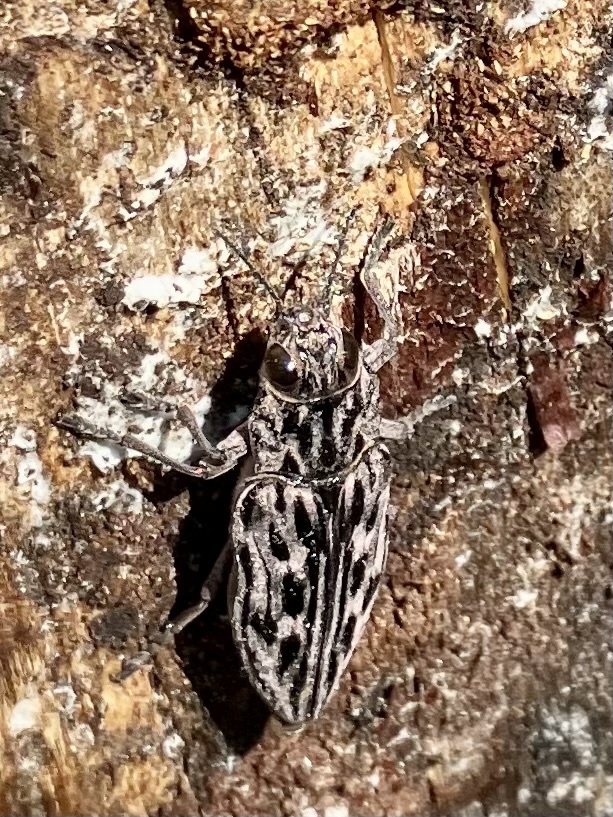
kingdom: Animalia
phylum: Arthropoda
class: Insecta
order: Coleoptera
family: Buprestidae
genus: Chalcophora
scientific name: Chalcophora angulicollis
